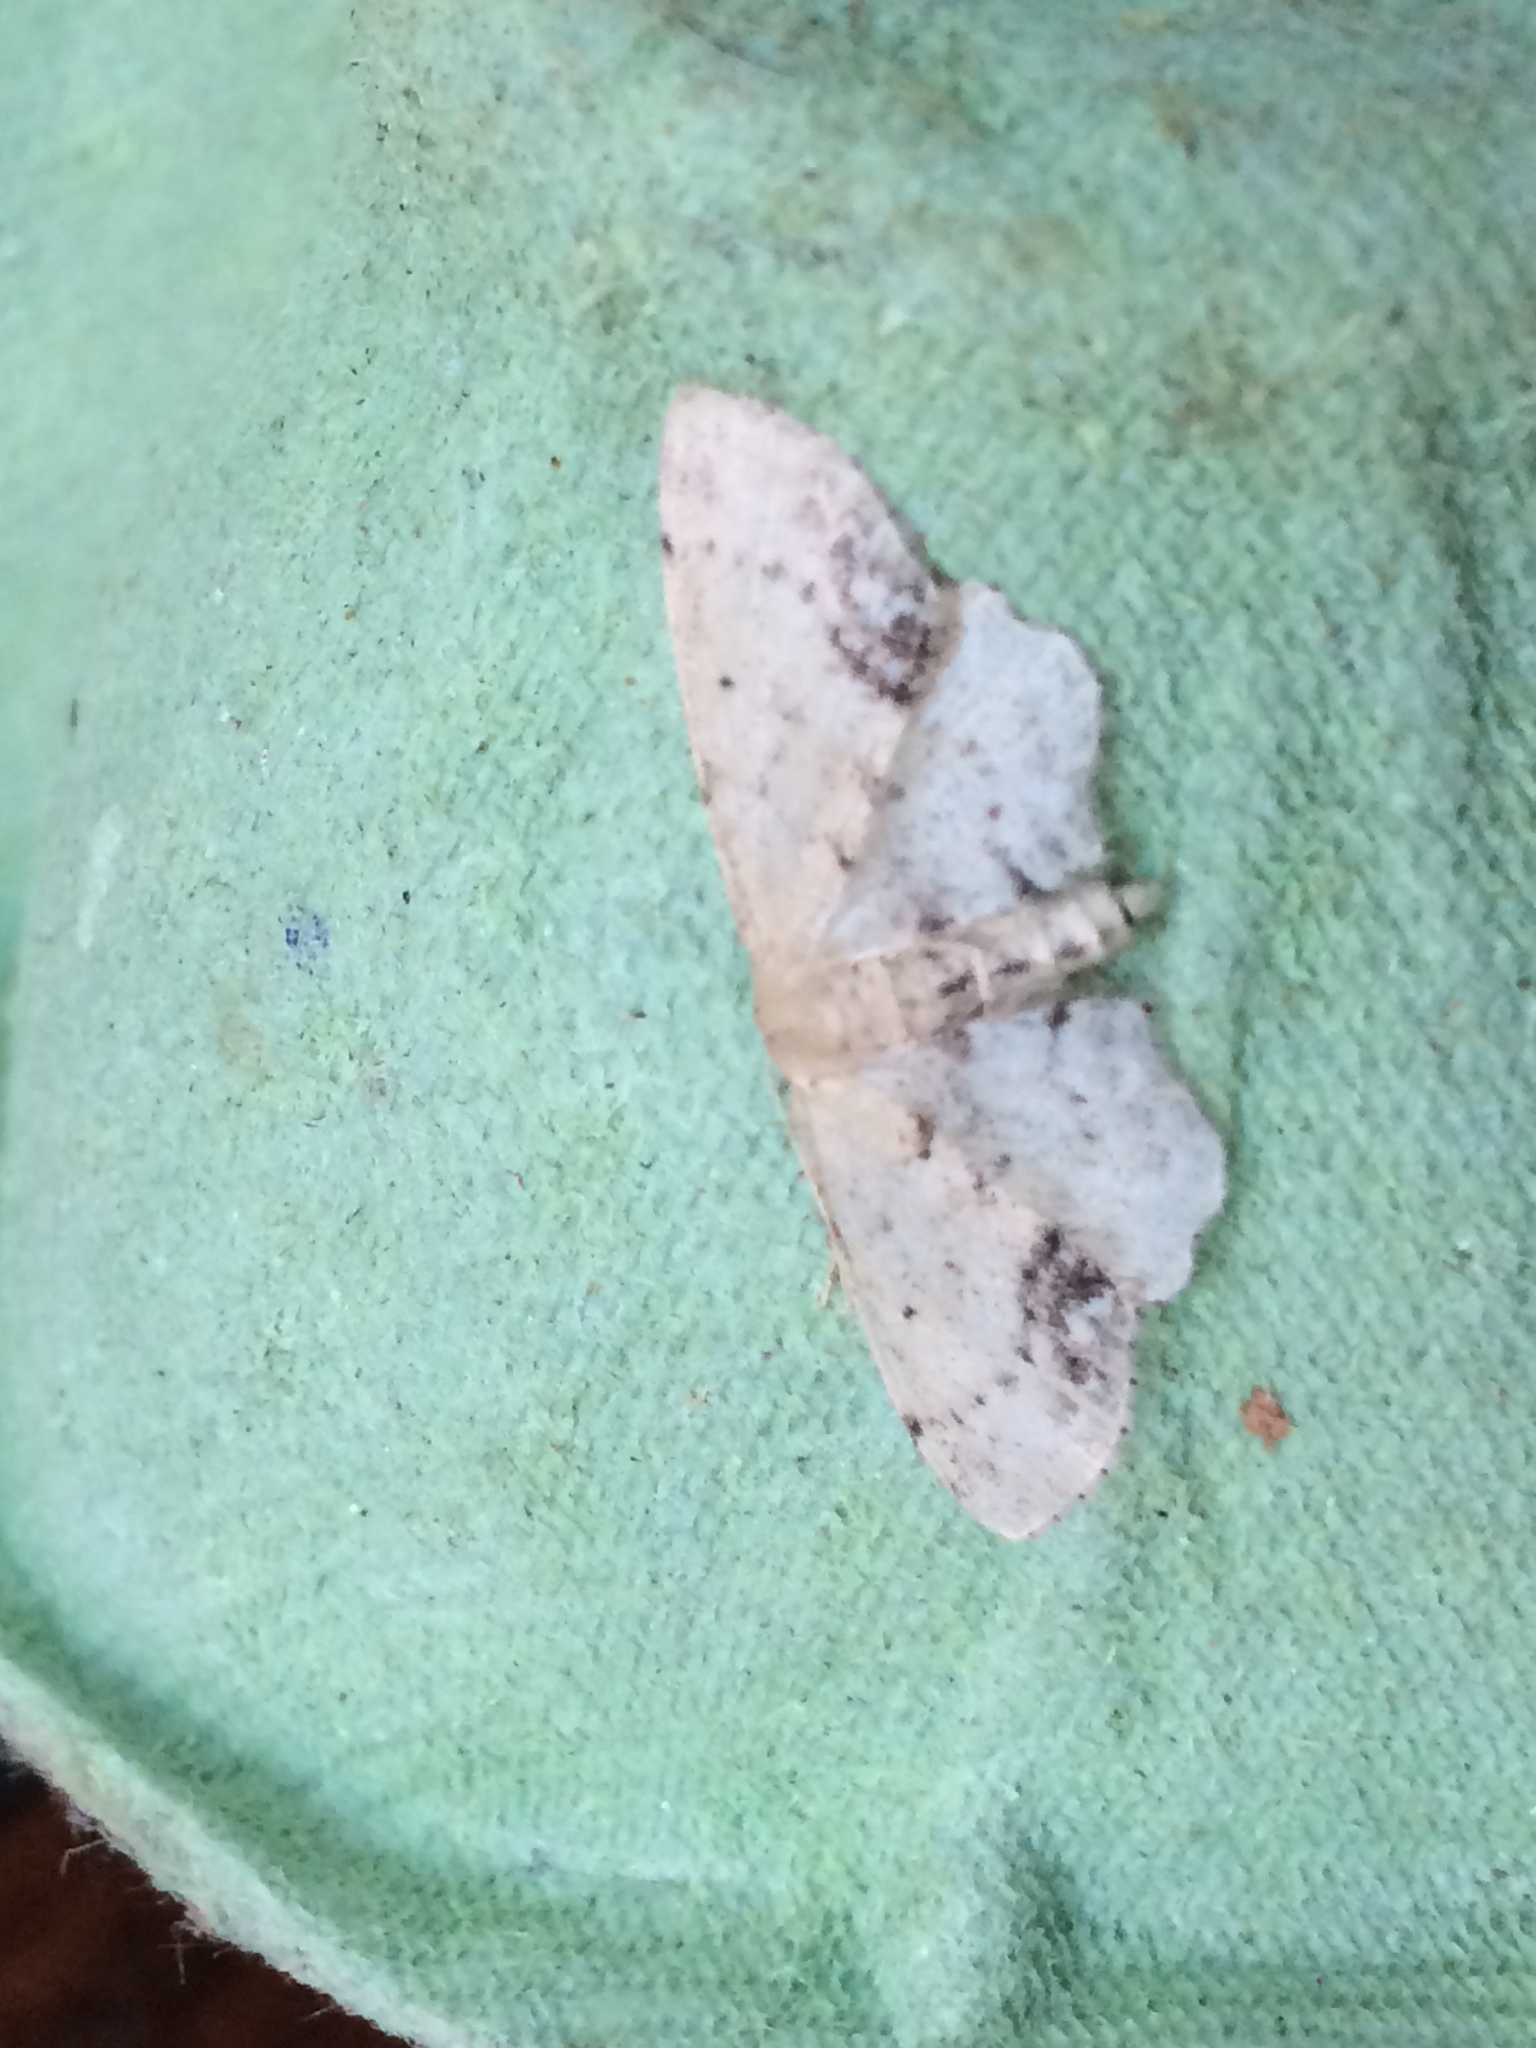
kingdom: Animalia
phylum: Arthropoda
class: Insecta
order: Lepidoptera
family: Geometridae
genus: Idaea
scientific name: Idaea dimidiata
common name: Single-dotted wave
